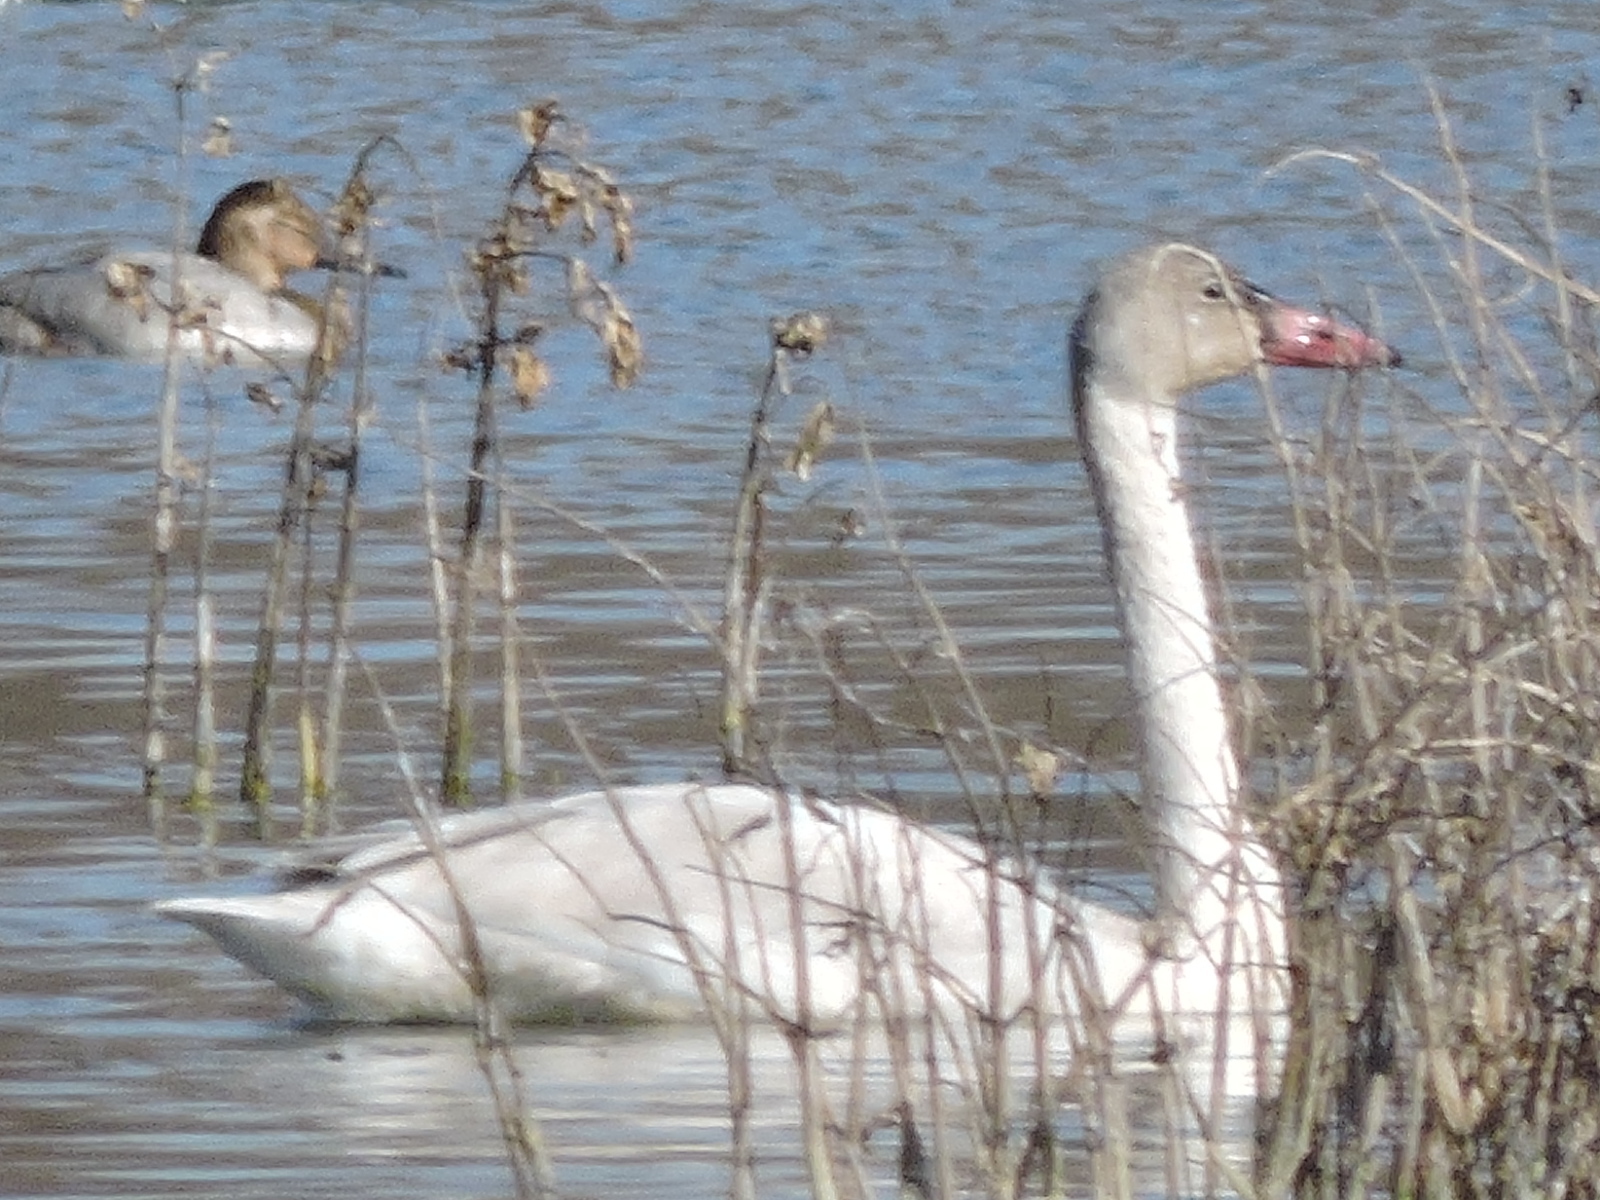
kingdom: Animalia
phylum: Chordata
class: Aves
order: Anseriformes
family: Anatidae
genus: Cygnus
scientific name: Cygnus columbianus
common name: Tundra swan
